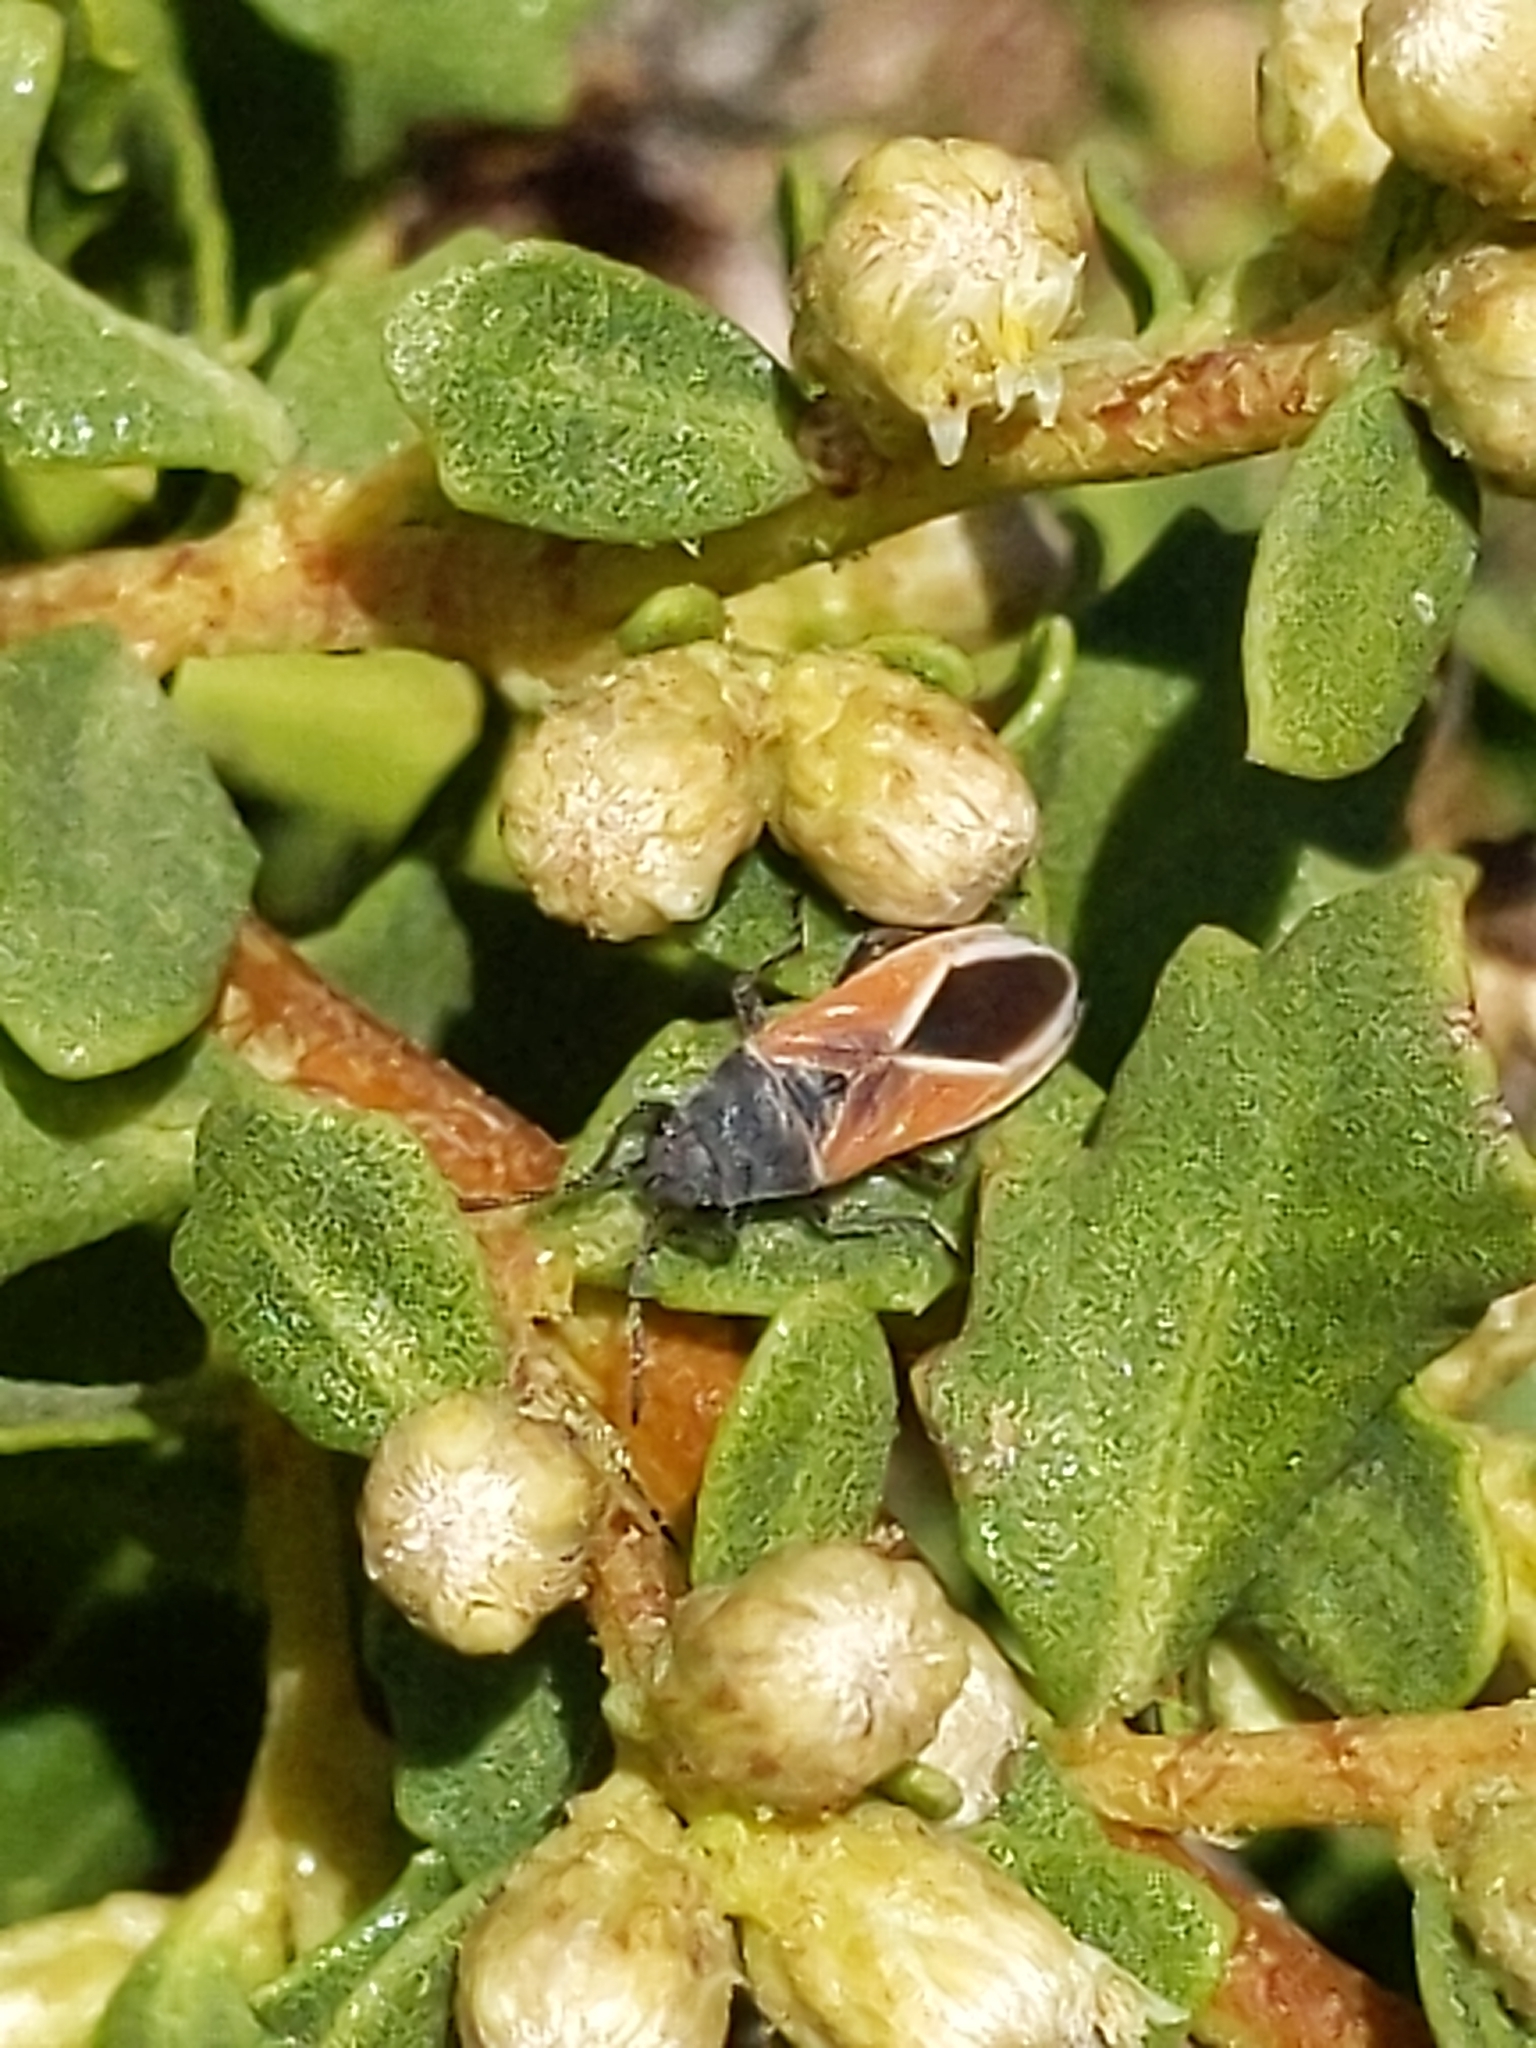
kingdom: Animalia
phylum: Arthropoda
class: Insecta
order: Hemiptera
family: Lygaeidae
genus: Melanopleurus
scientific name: Melanopleurus pyrrhopterus
